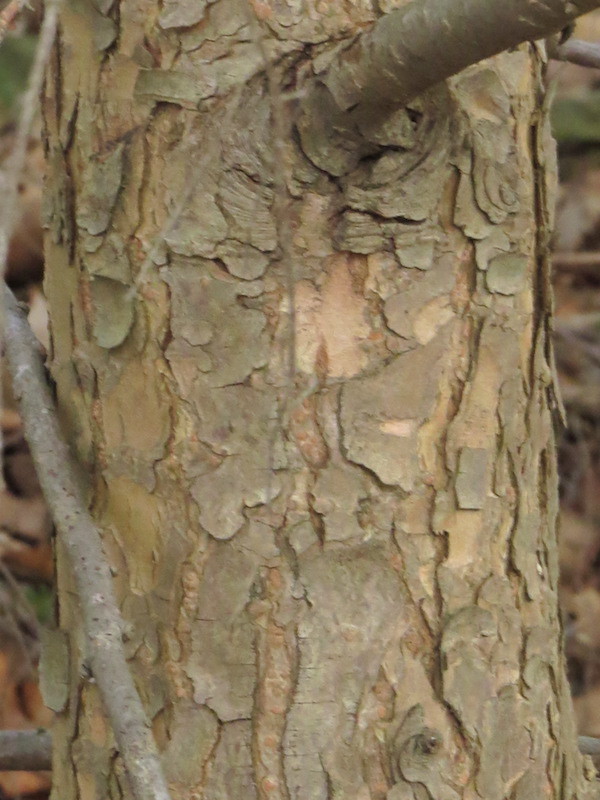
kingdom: Plantae
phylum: Tracheophyta
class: Pinopsida
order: Pinales
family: Pinaceae
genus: Tsuga
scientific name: Tsuga canadensis
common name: Eastern hemlock
